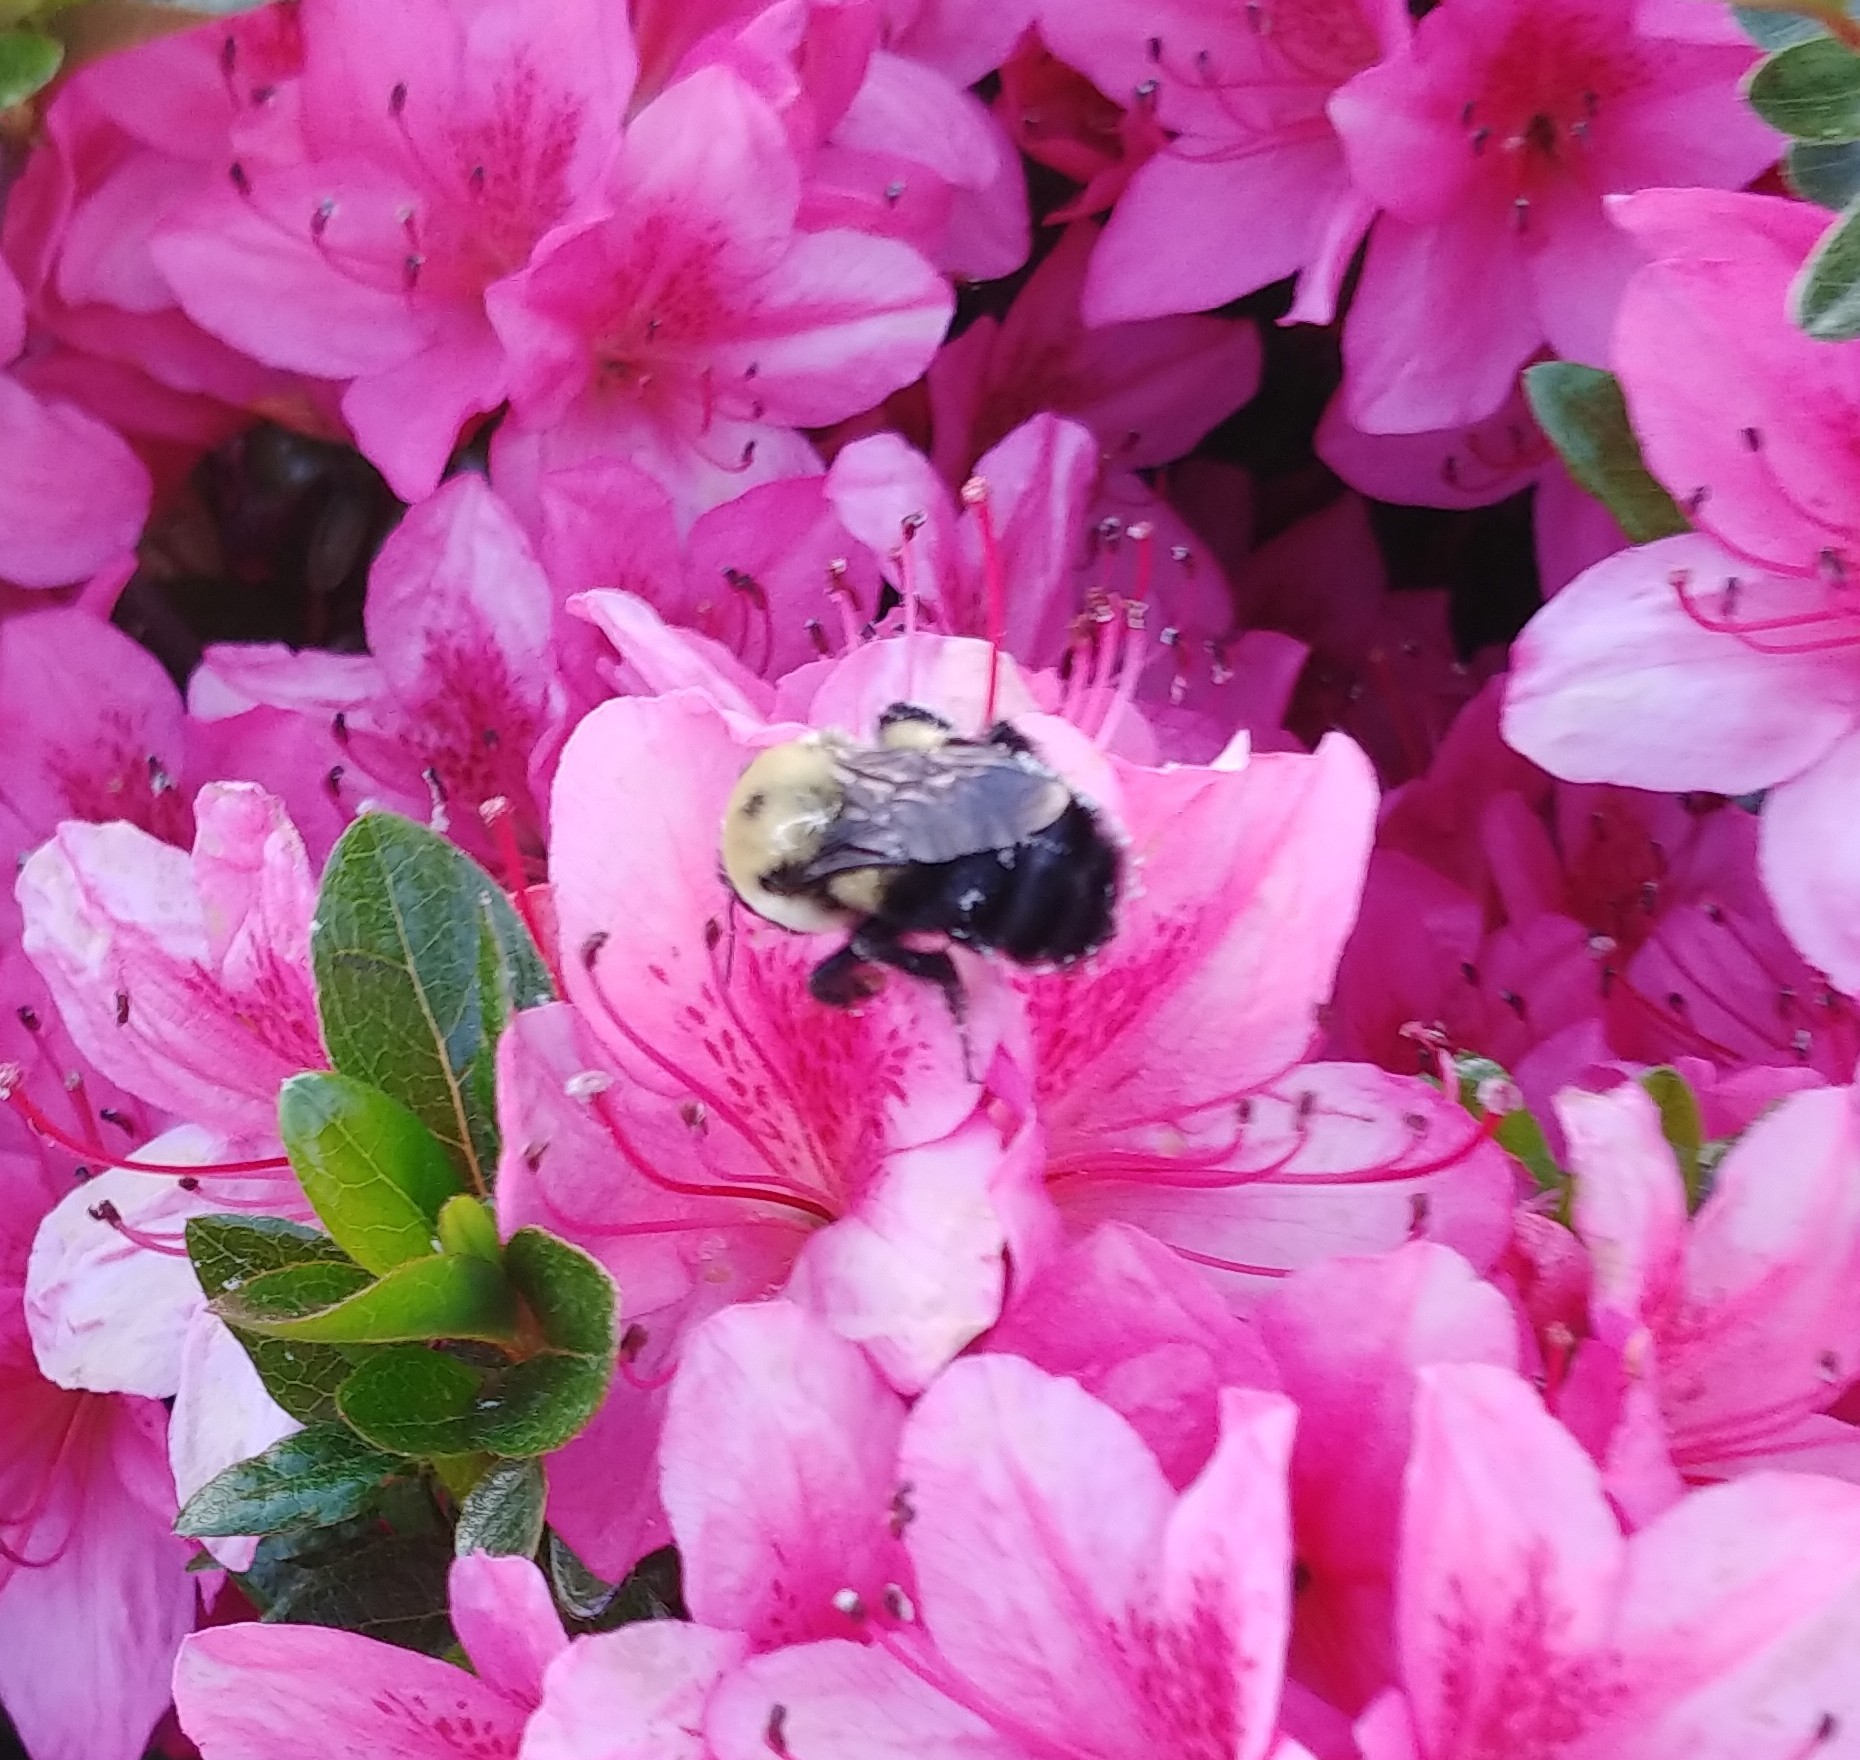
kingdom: Animalia
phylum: Arthropoda
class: Insecta
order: Hymenoptera
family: Apidae
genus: Bombus
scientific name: Bombus griseocollis
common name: Brown-belted bumble bee
